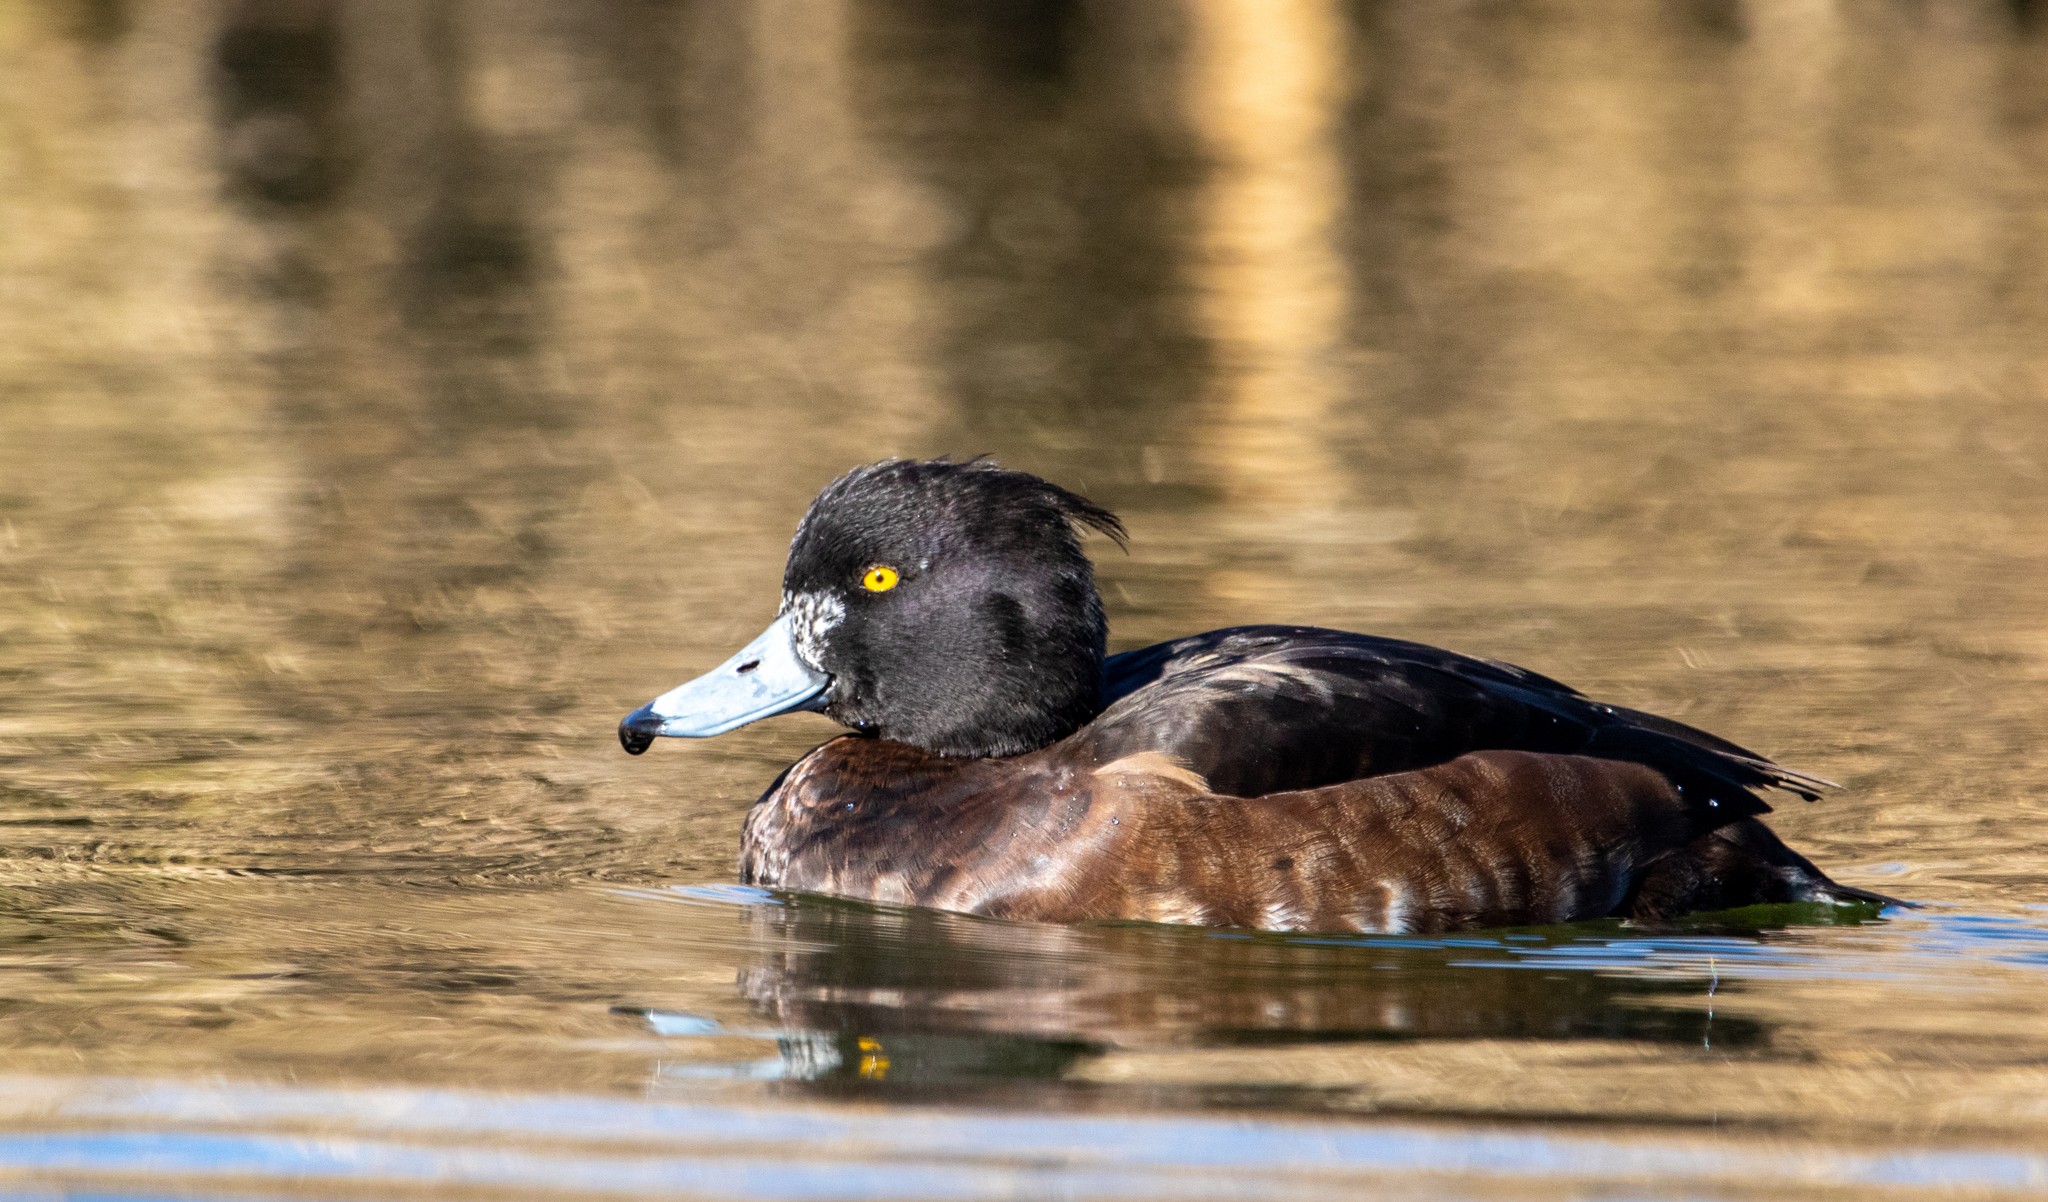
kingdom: Animalia
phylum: Chordata
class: Aves
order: Anseriformes
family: Anatidae
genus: Aythya
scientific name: Aythya fuligula
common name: Tufted duck
